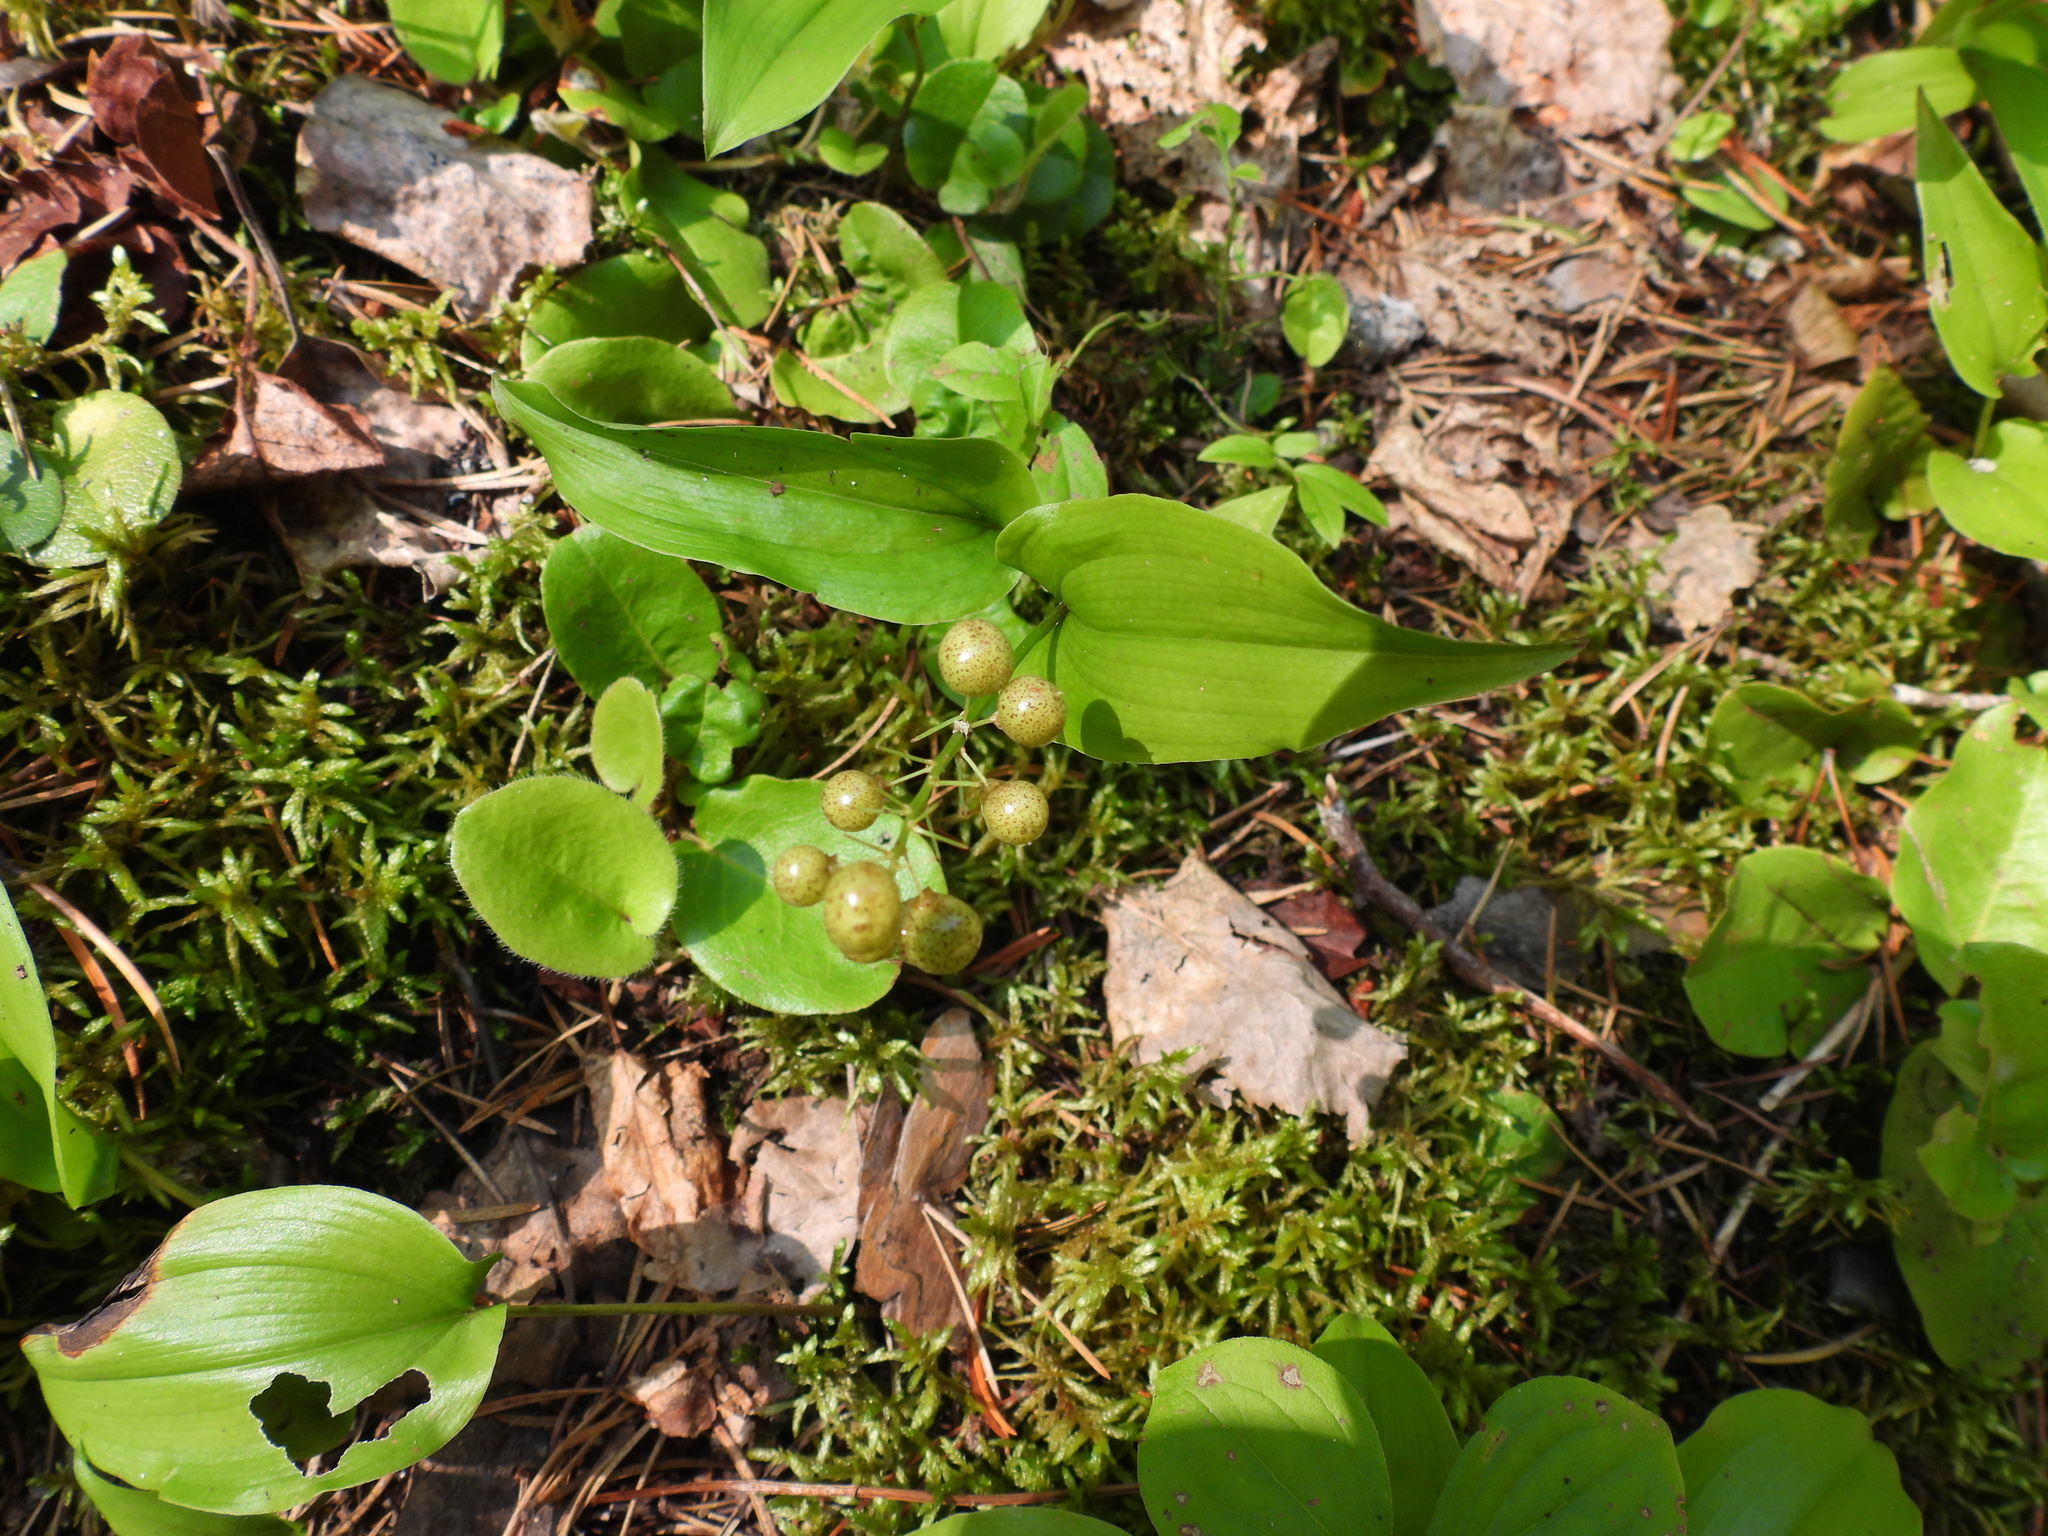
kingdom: Plantae
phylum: Tracheophyta
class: Liliopsida
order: Asparagales
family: Asparagaceae
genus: Maianthemum
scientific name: Maianthemum canadense
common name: False lily-of-the-valley
